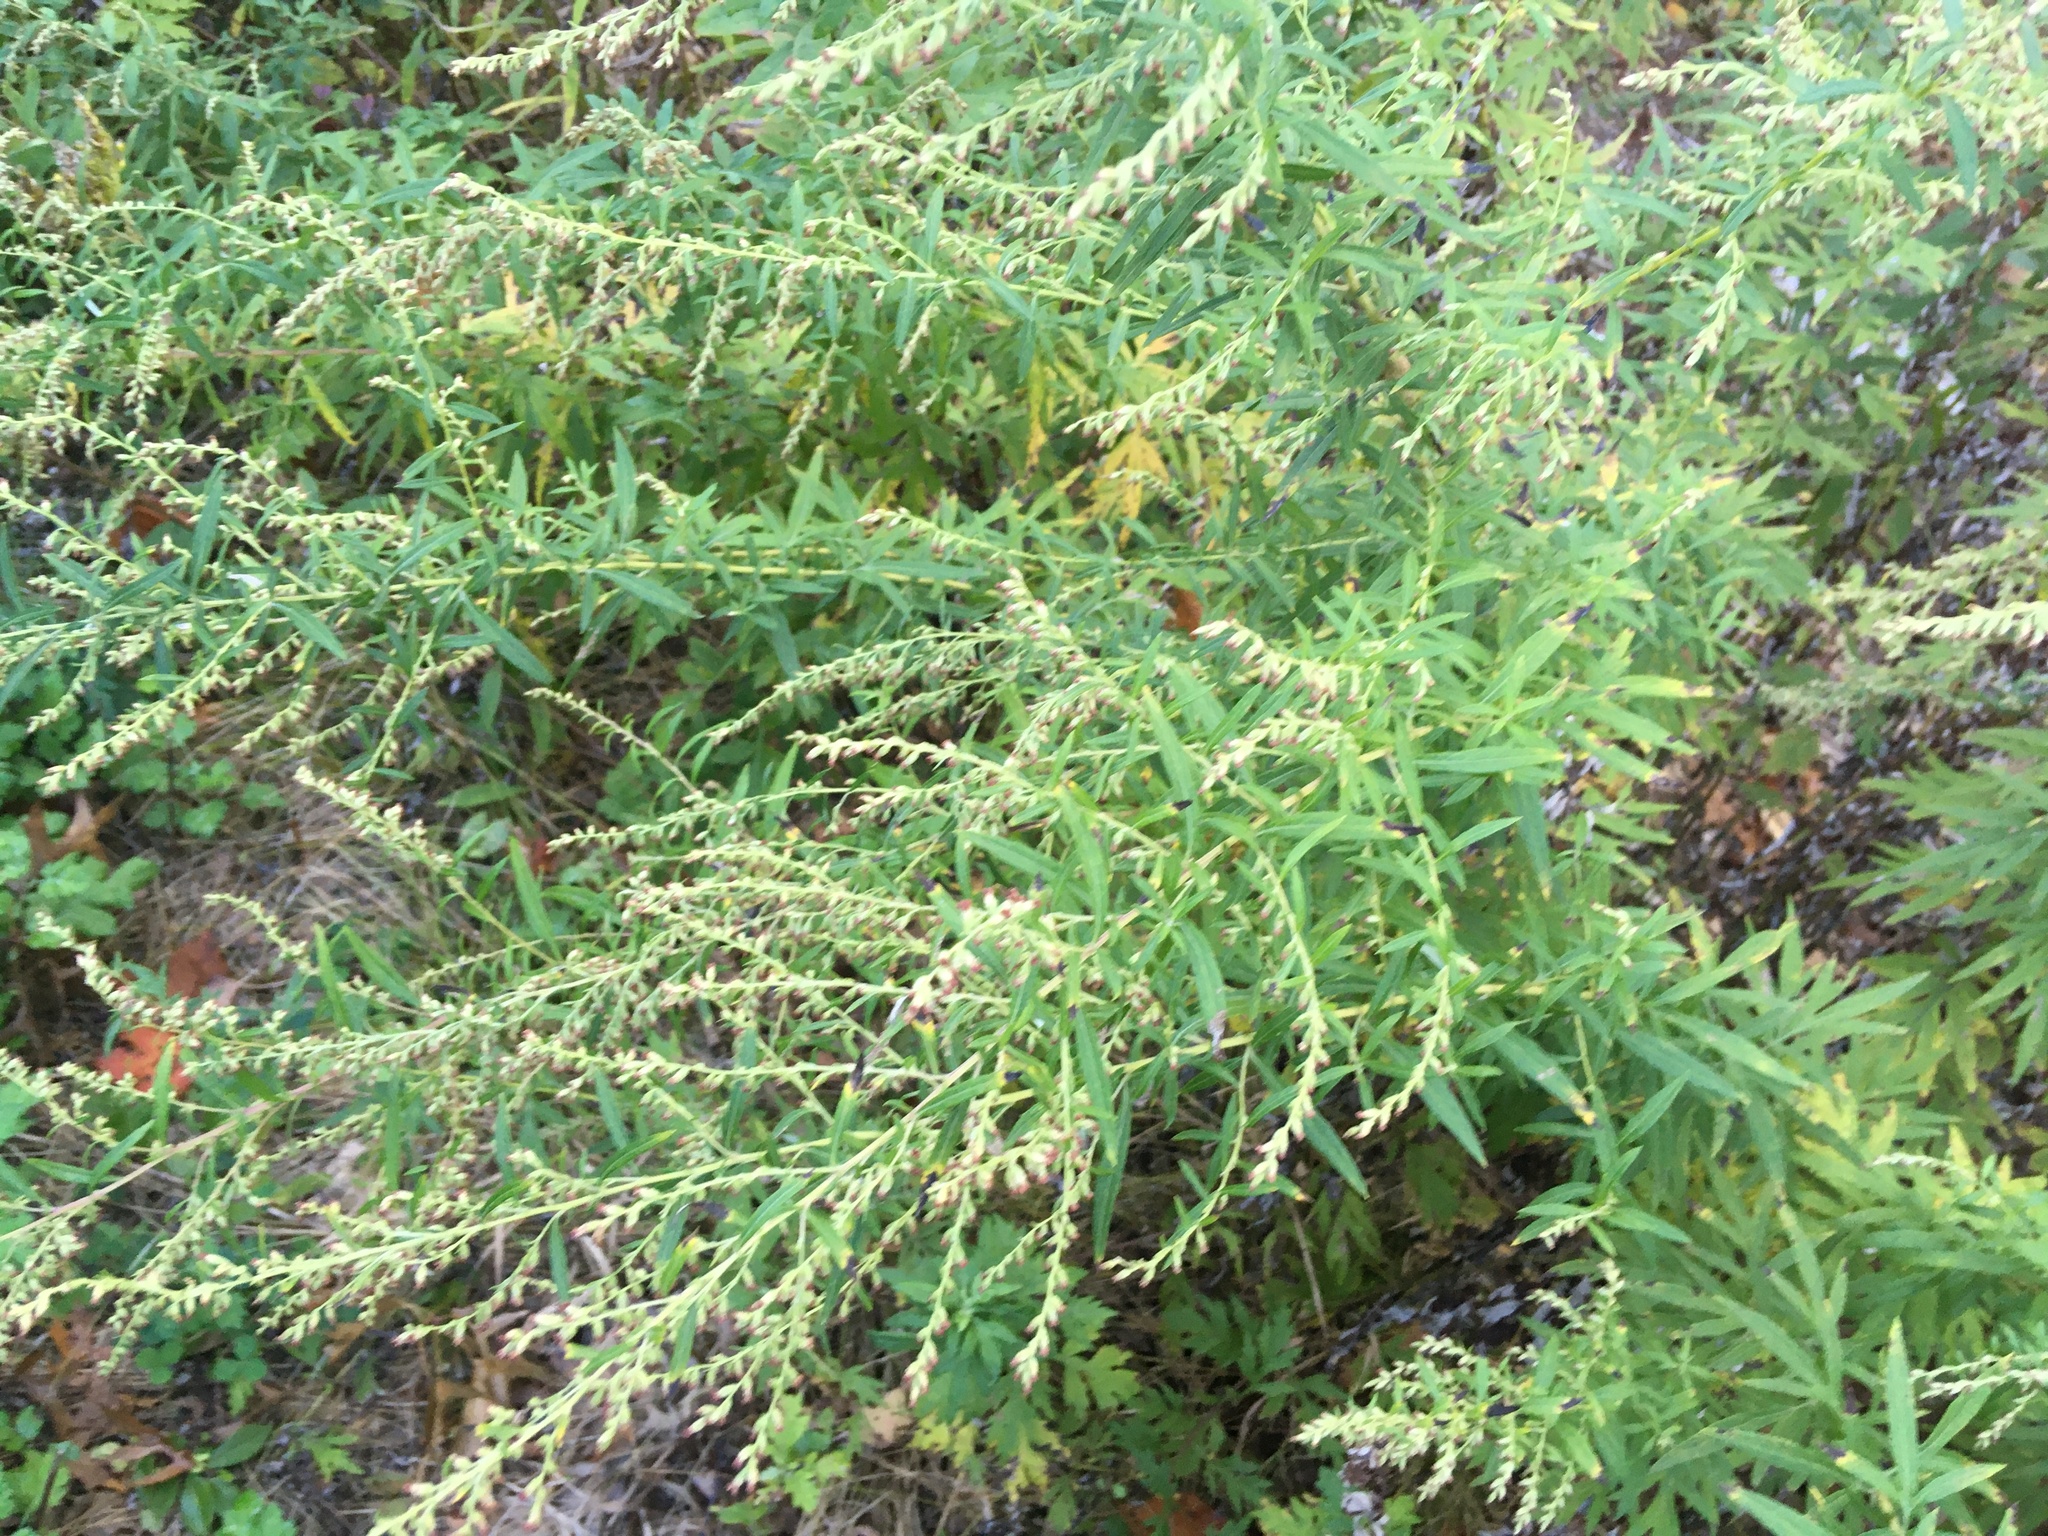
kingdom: Plantae
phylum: Tracheophyta
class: Magnoliopsida
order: Asterales
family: Asteraceae
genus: Artemisia
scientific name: Artemisia vulgaris
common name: Mugwort
